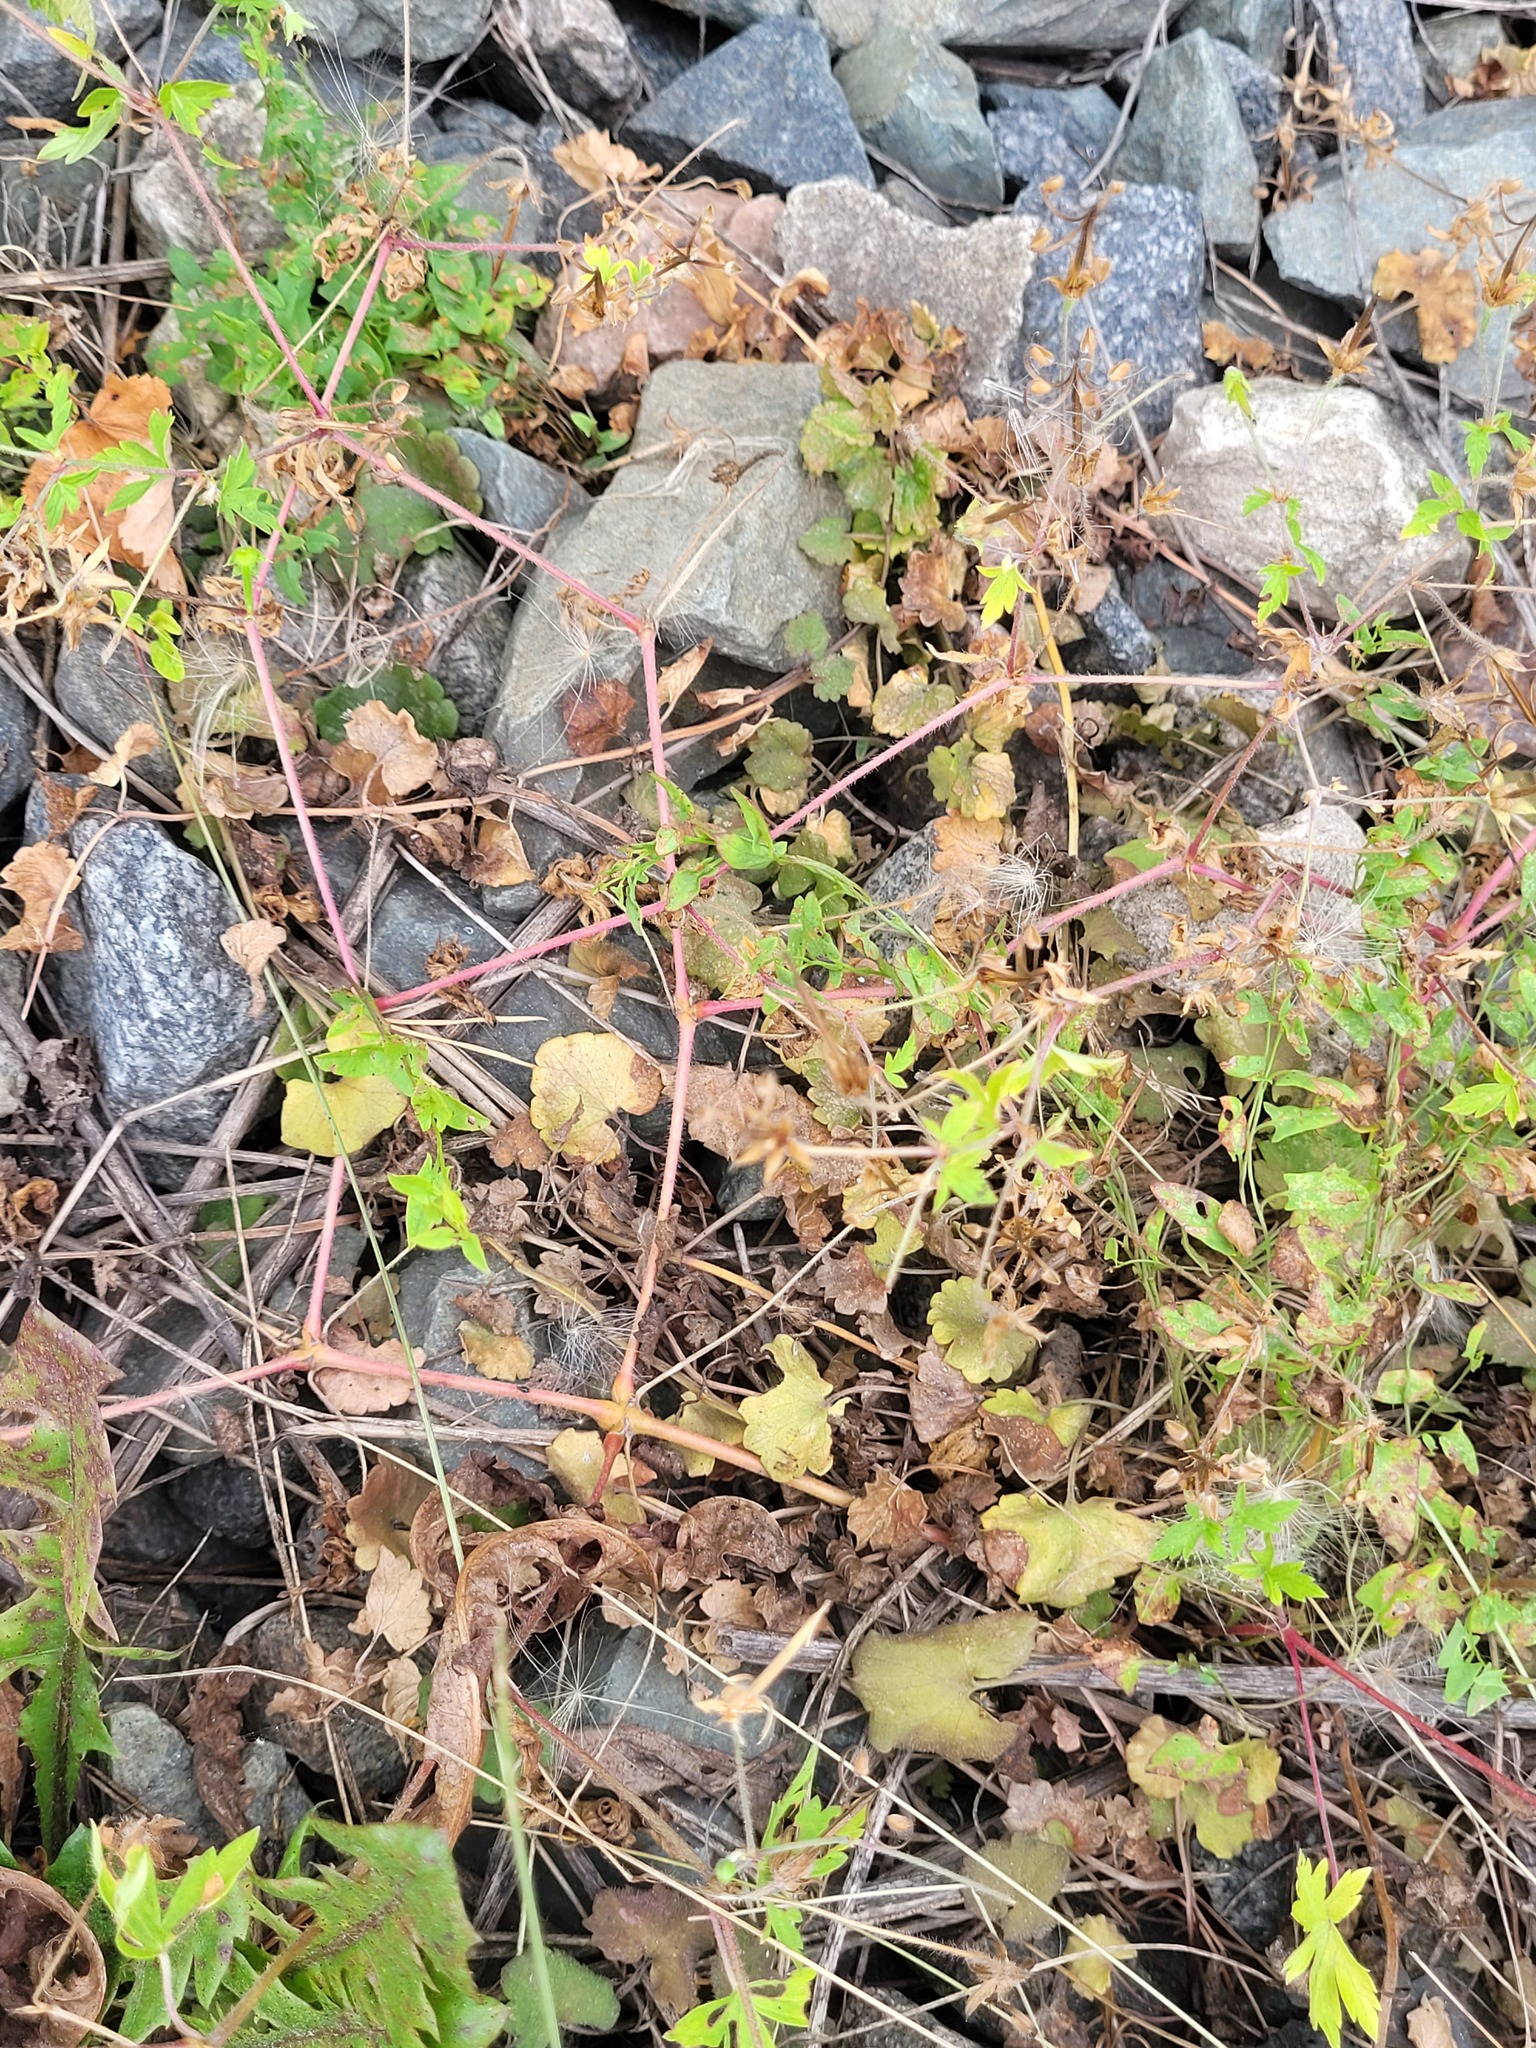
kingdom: Plantae
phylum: Tracheophyta
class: Magnoliopsida
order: Lamiales
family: Lamiaceae
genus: Glechoma
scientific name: Glechoma hederacea
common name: Ground ivy
